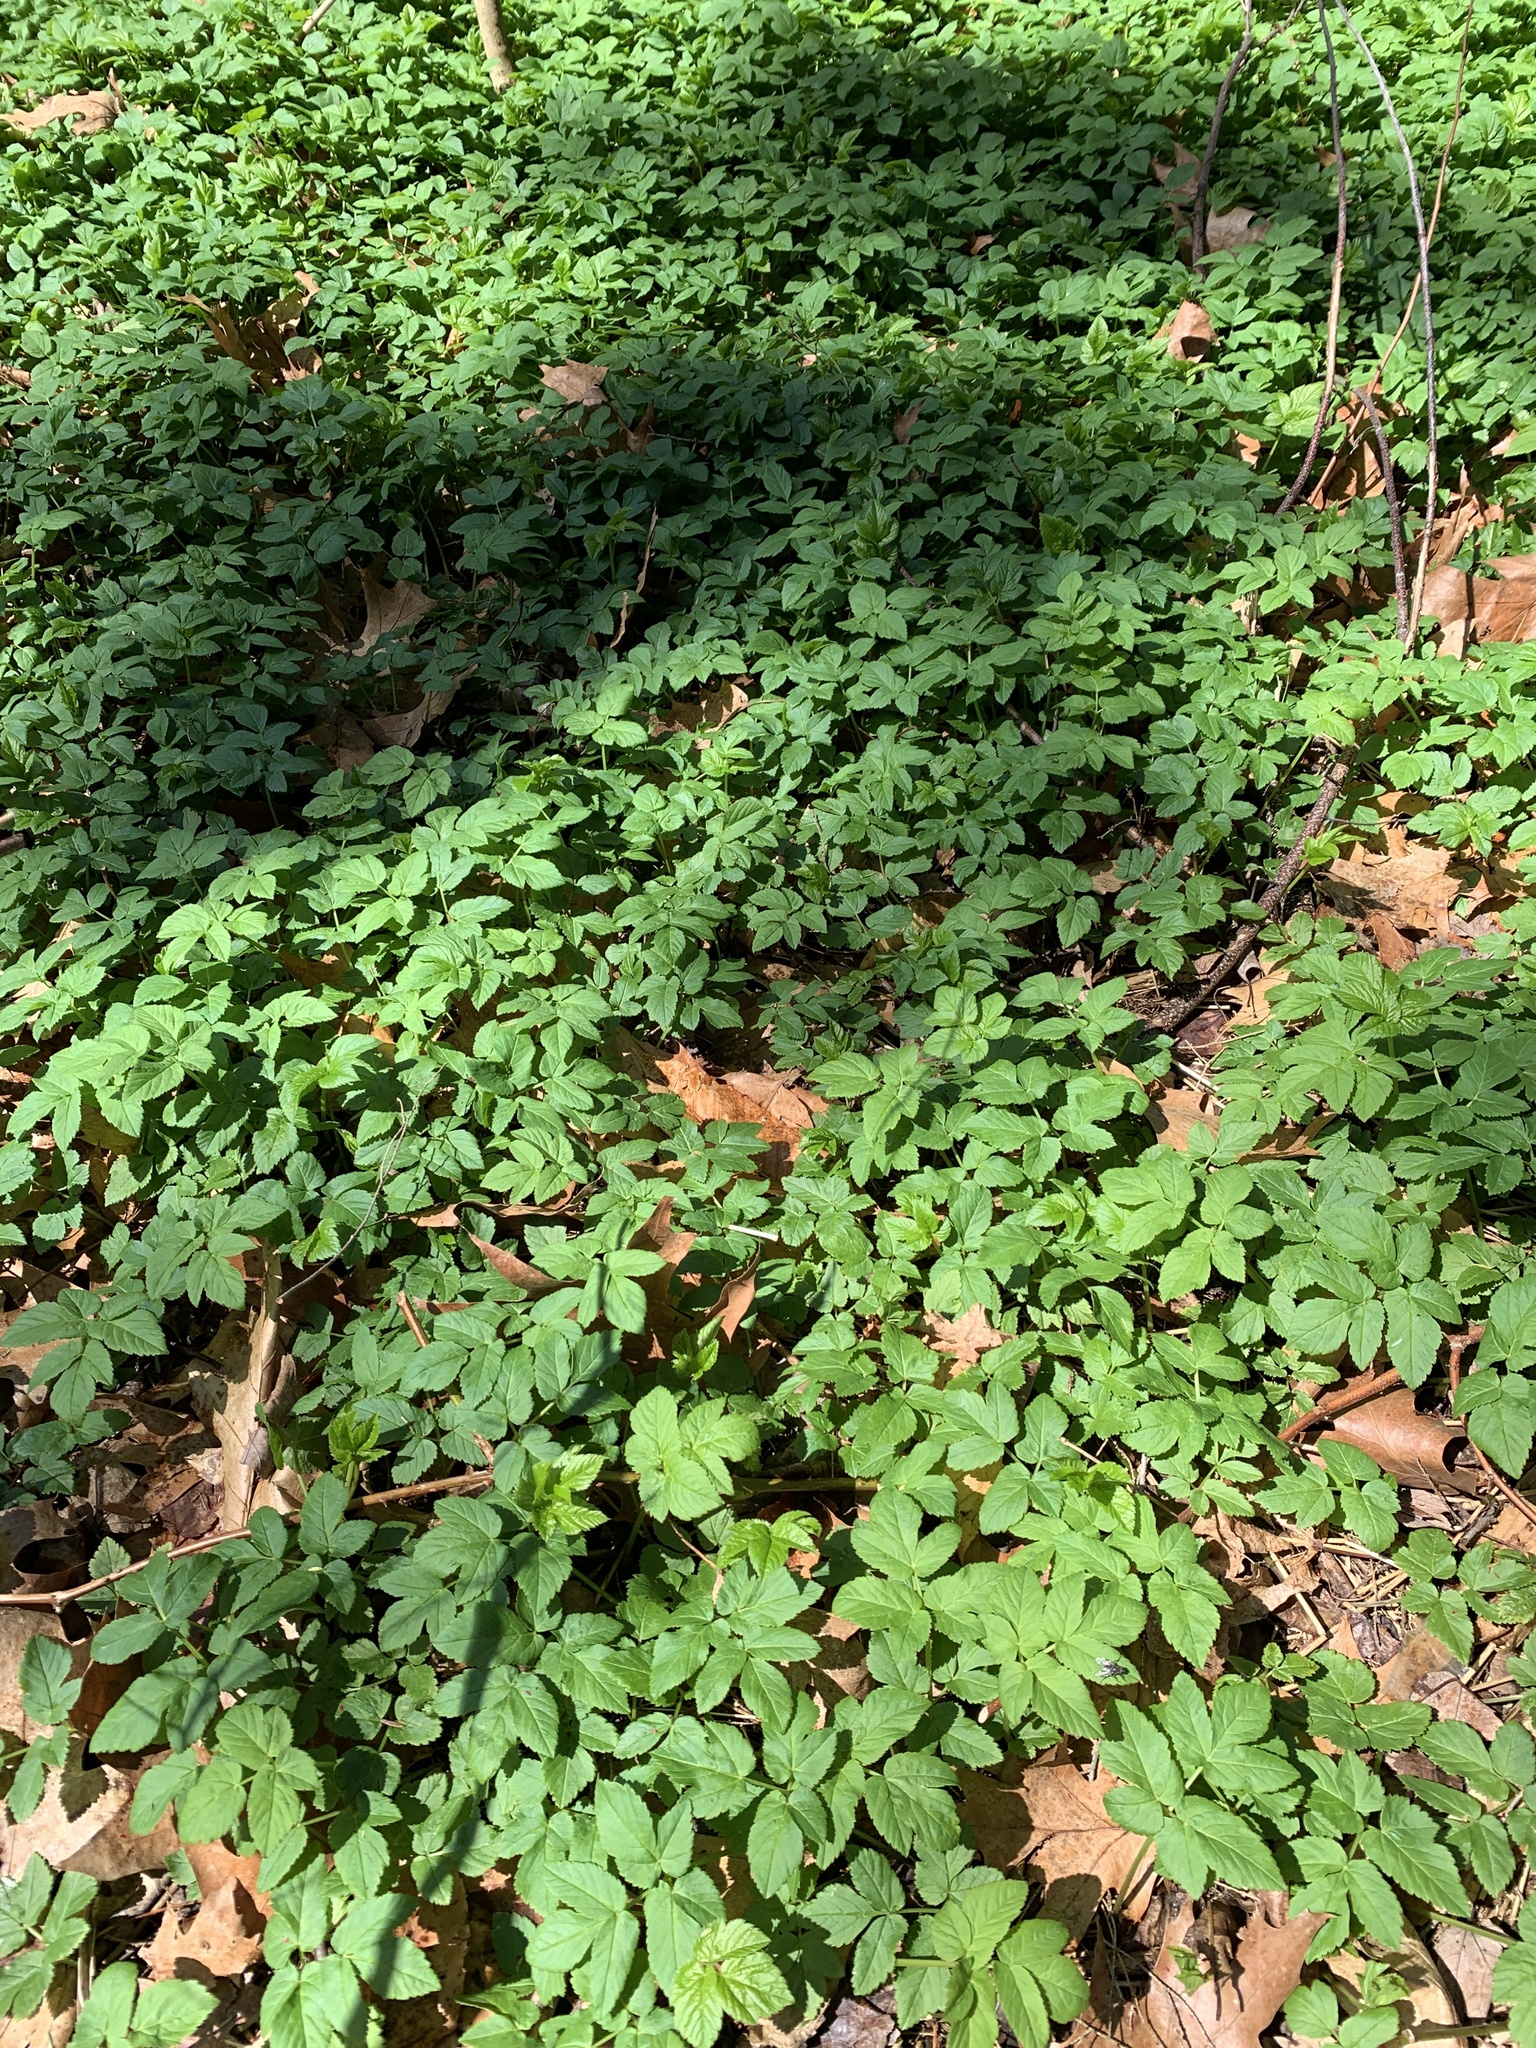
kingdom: Plantae
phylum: Tracheophyta
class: Magnoliopsida
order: Apiales
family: Apiaceae
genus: Aegopodium
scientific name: Aegopodium podagraria
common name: Ground-elder
